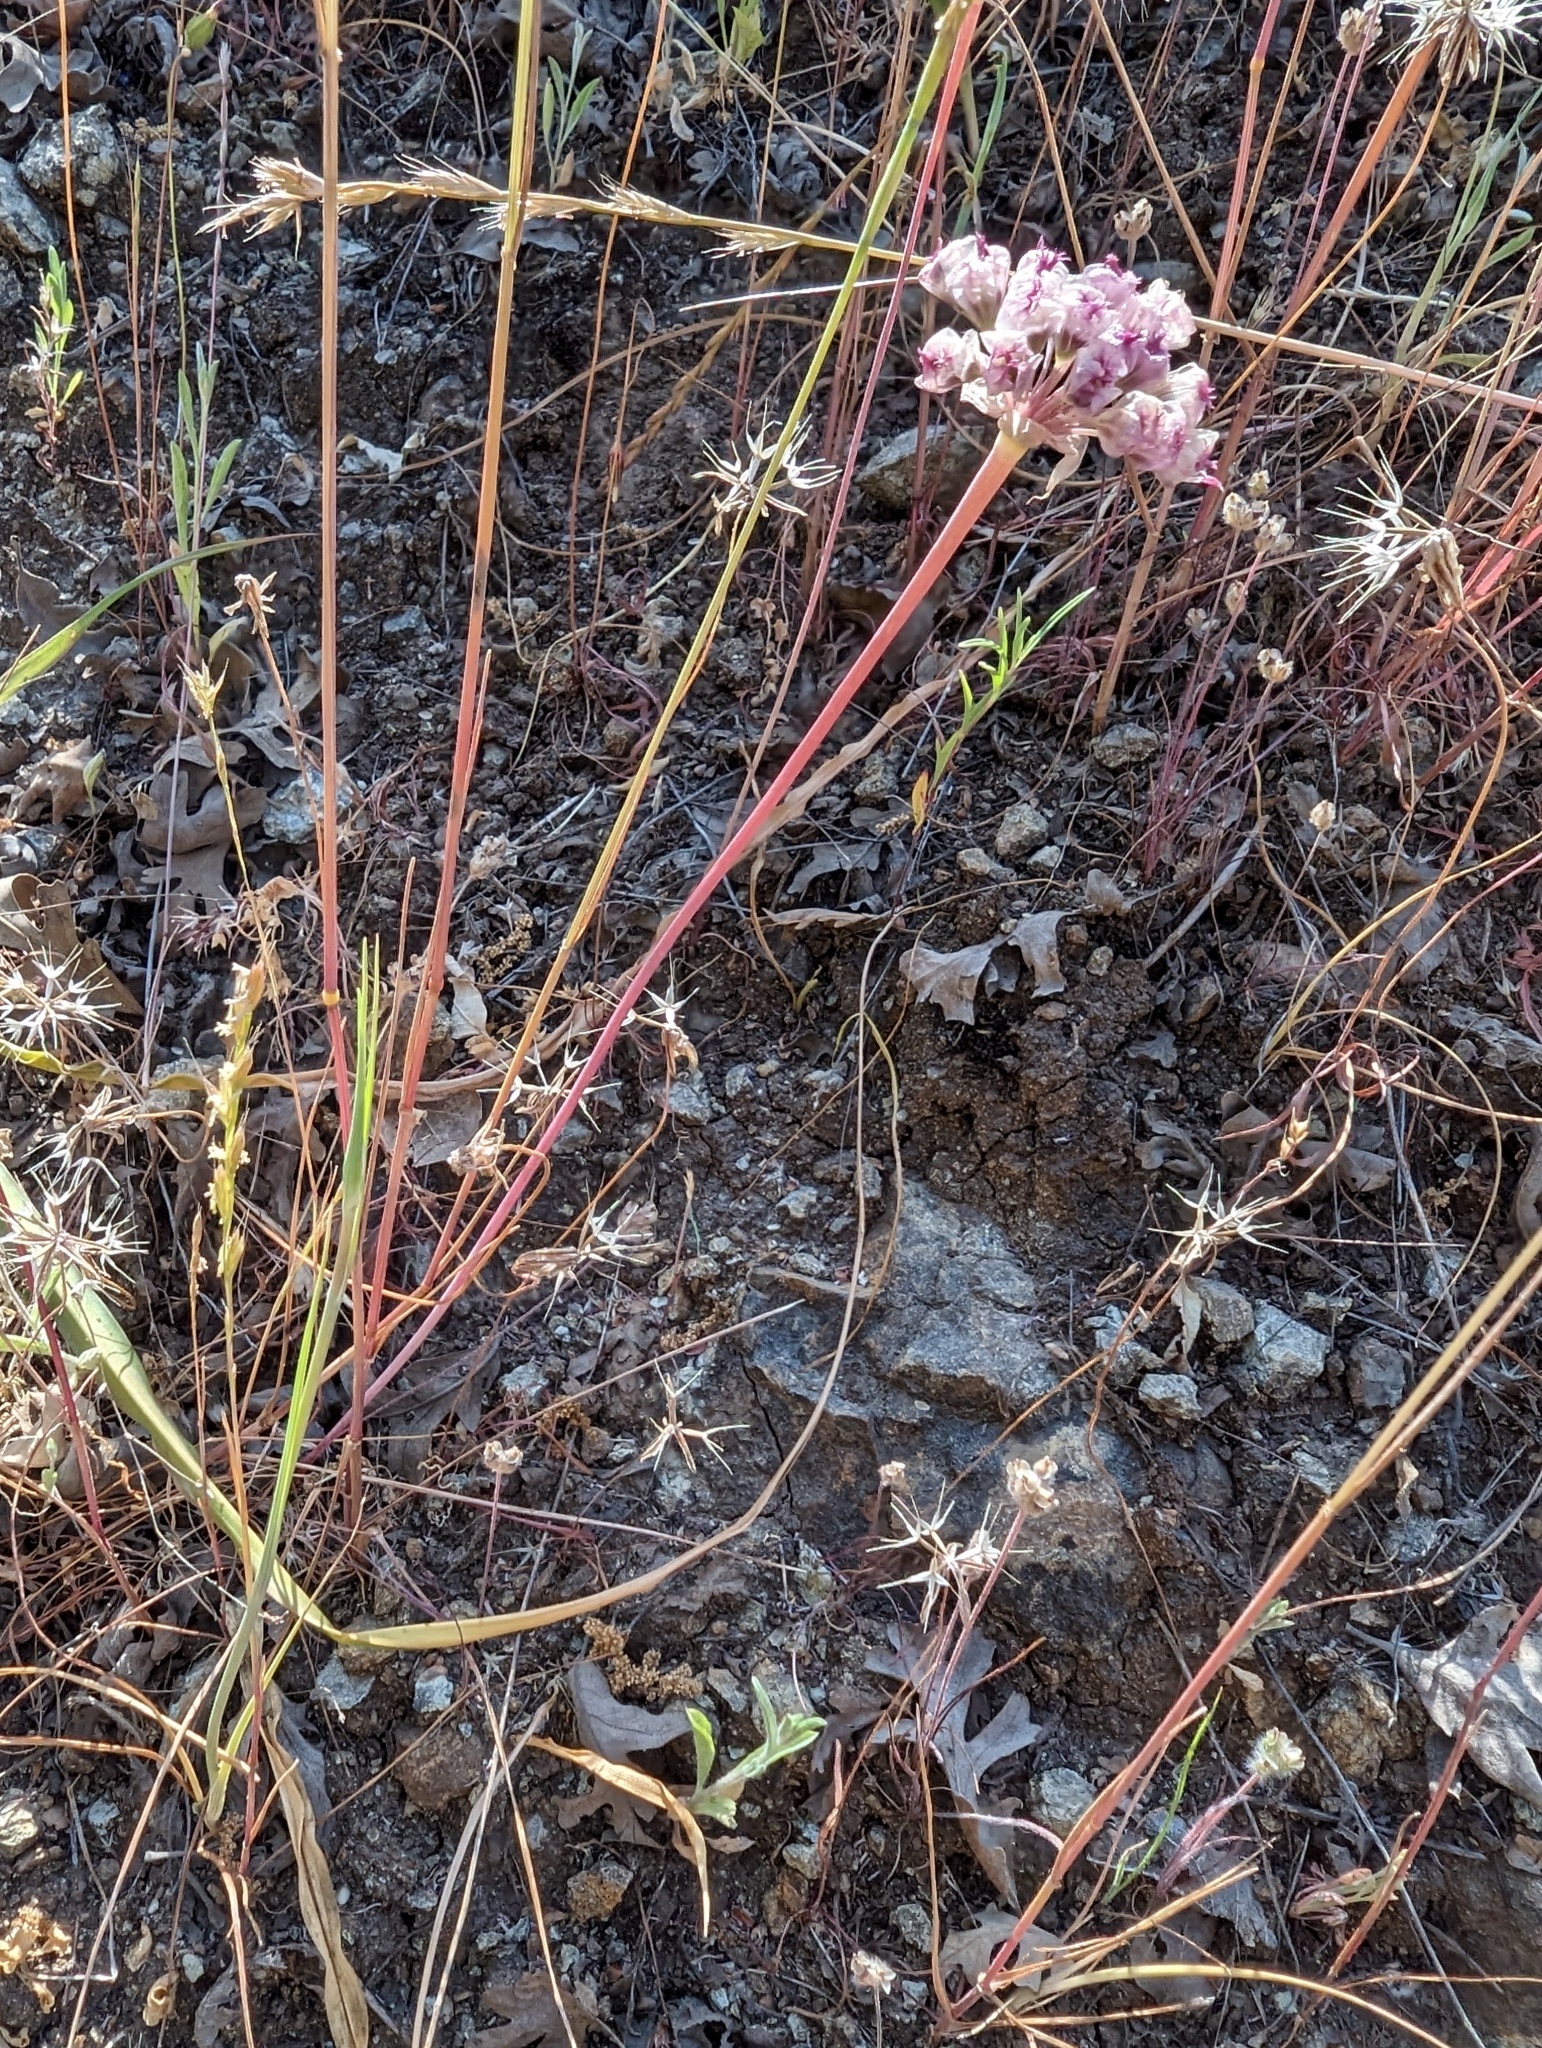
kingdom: Plantae
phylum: Tracheophyta
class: Liliopsida
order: Asparagales
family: Amaryllidaceae
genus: Allium
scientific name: Allium serra
